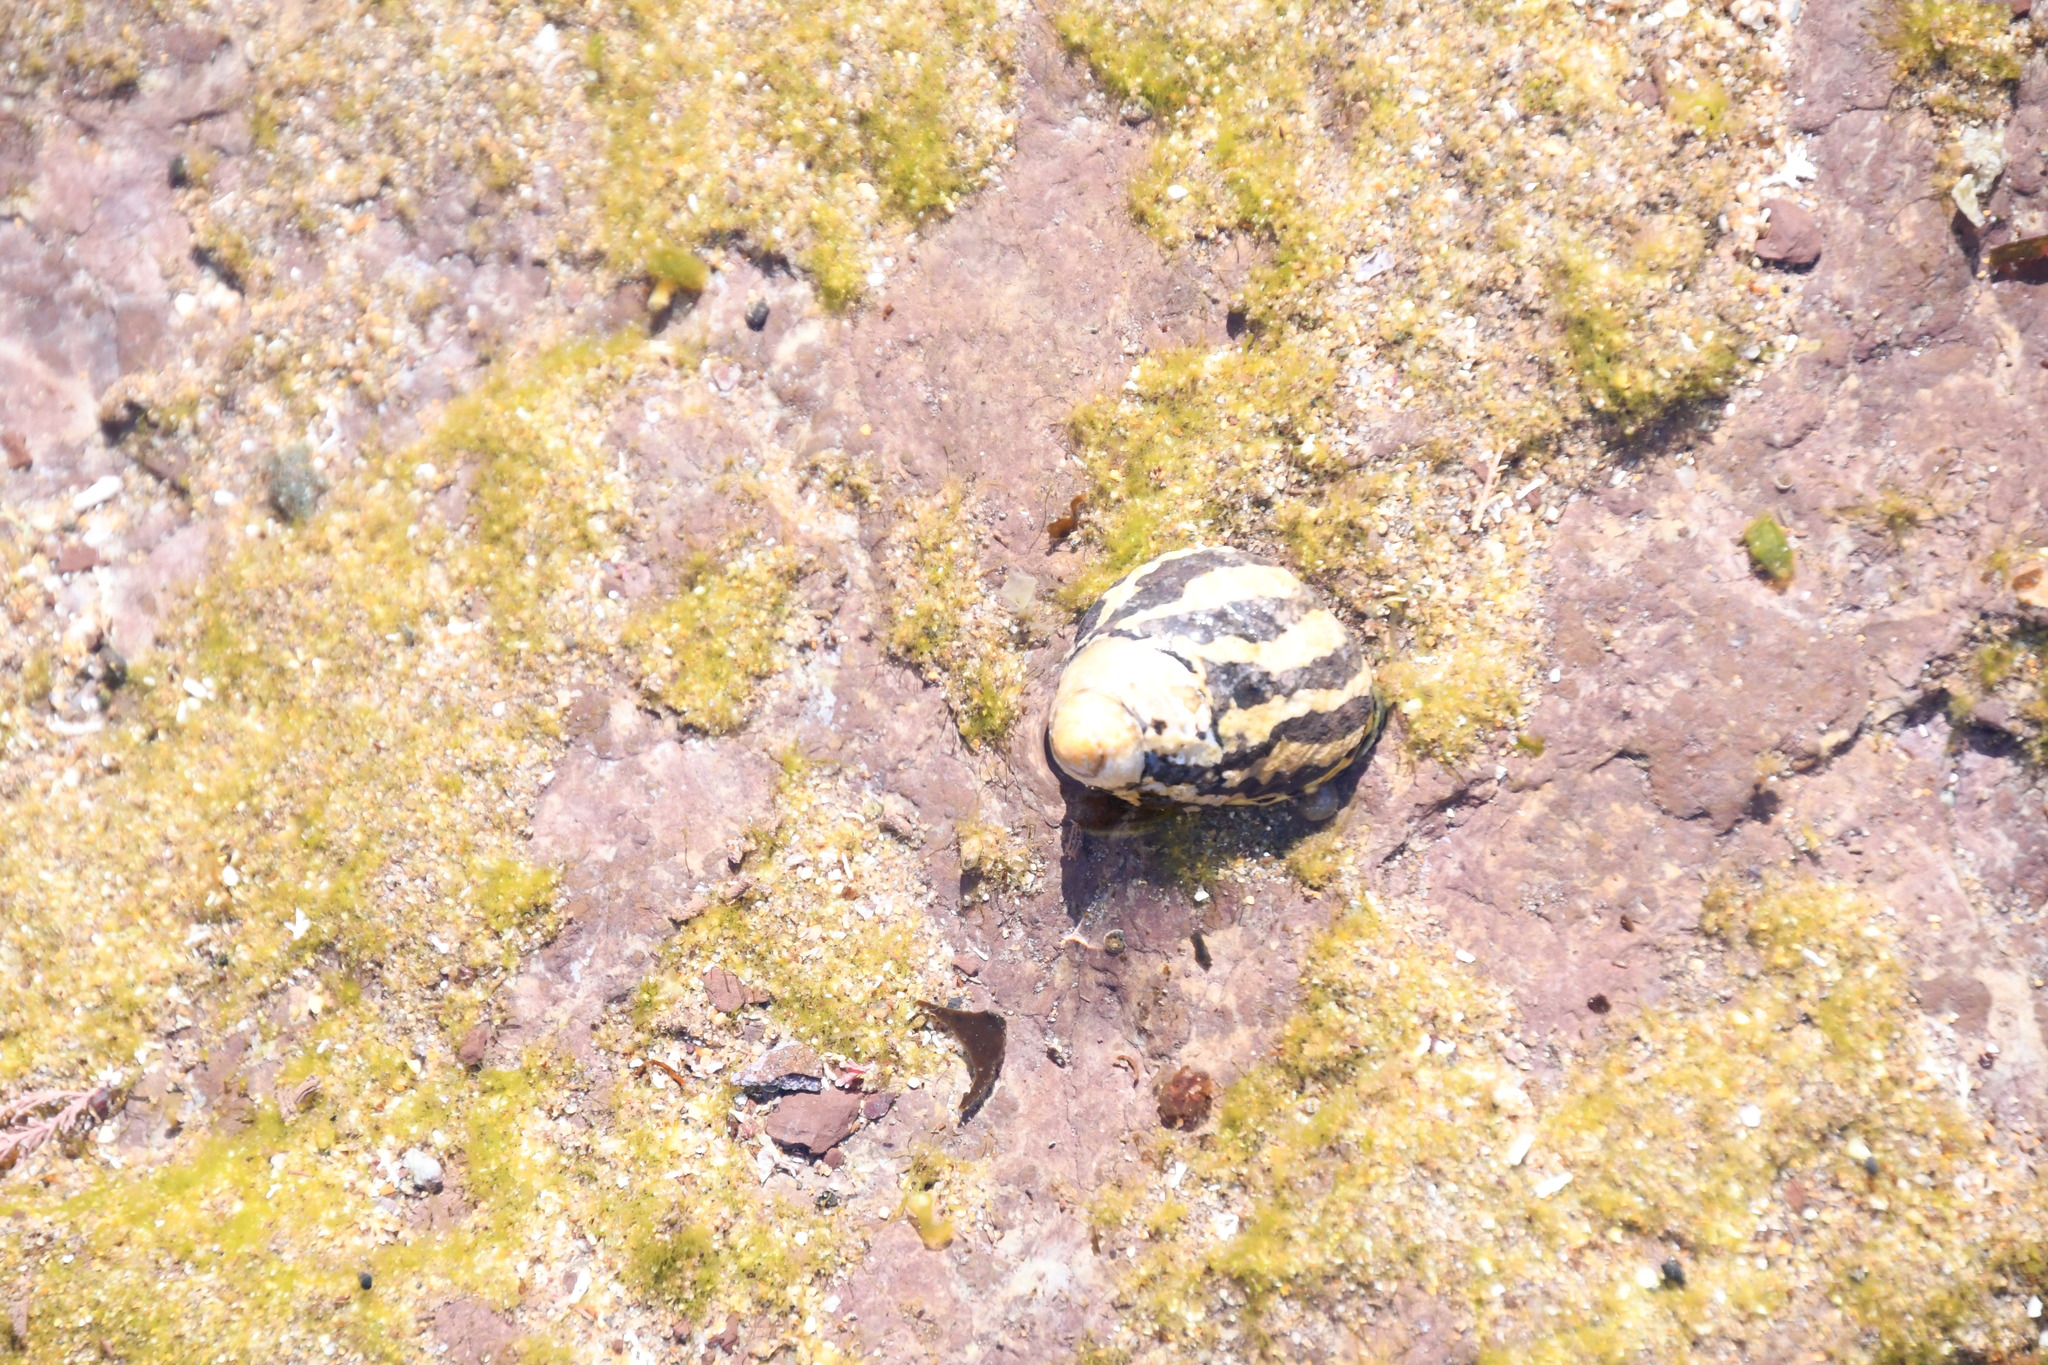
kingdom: Animalia
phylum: Mollusca
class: Gastropoda
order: Trochida
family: Trochidae
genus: Austrocochlea
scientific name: Austrocochlea porcata
